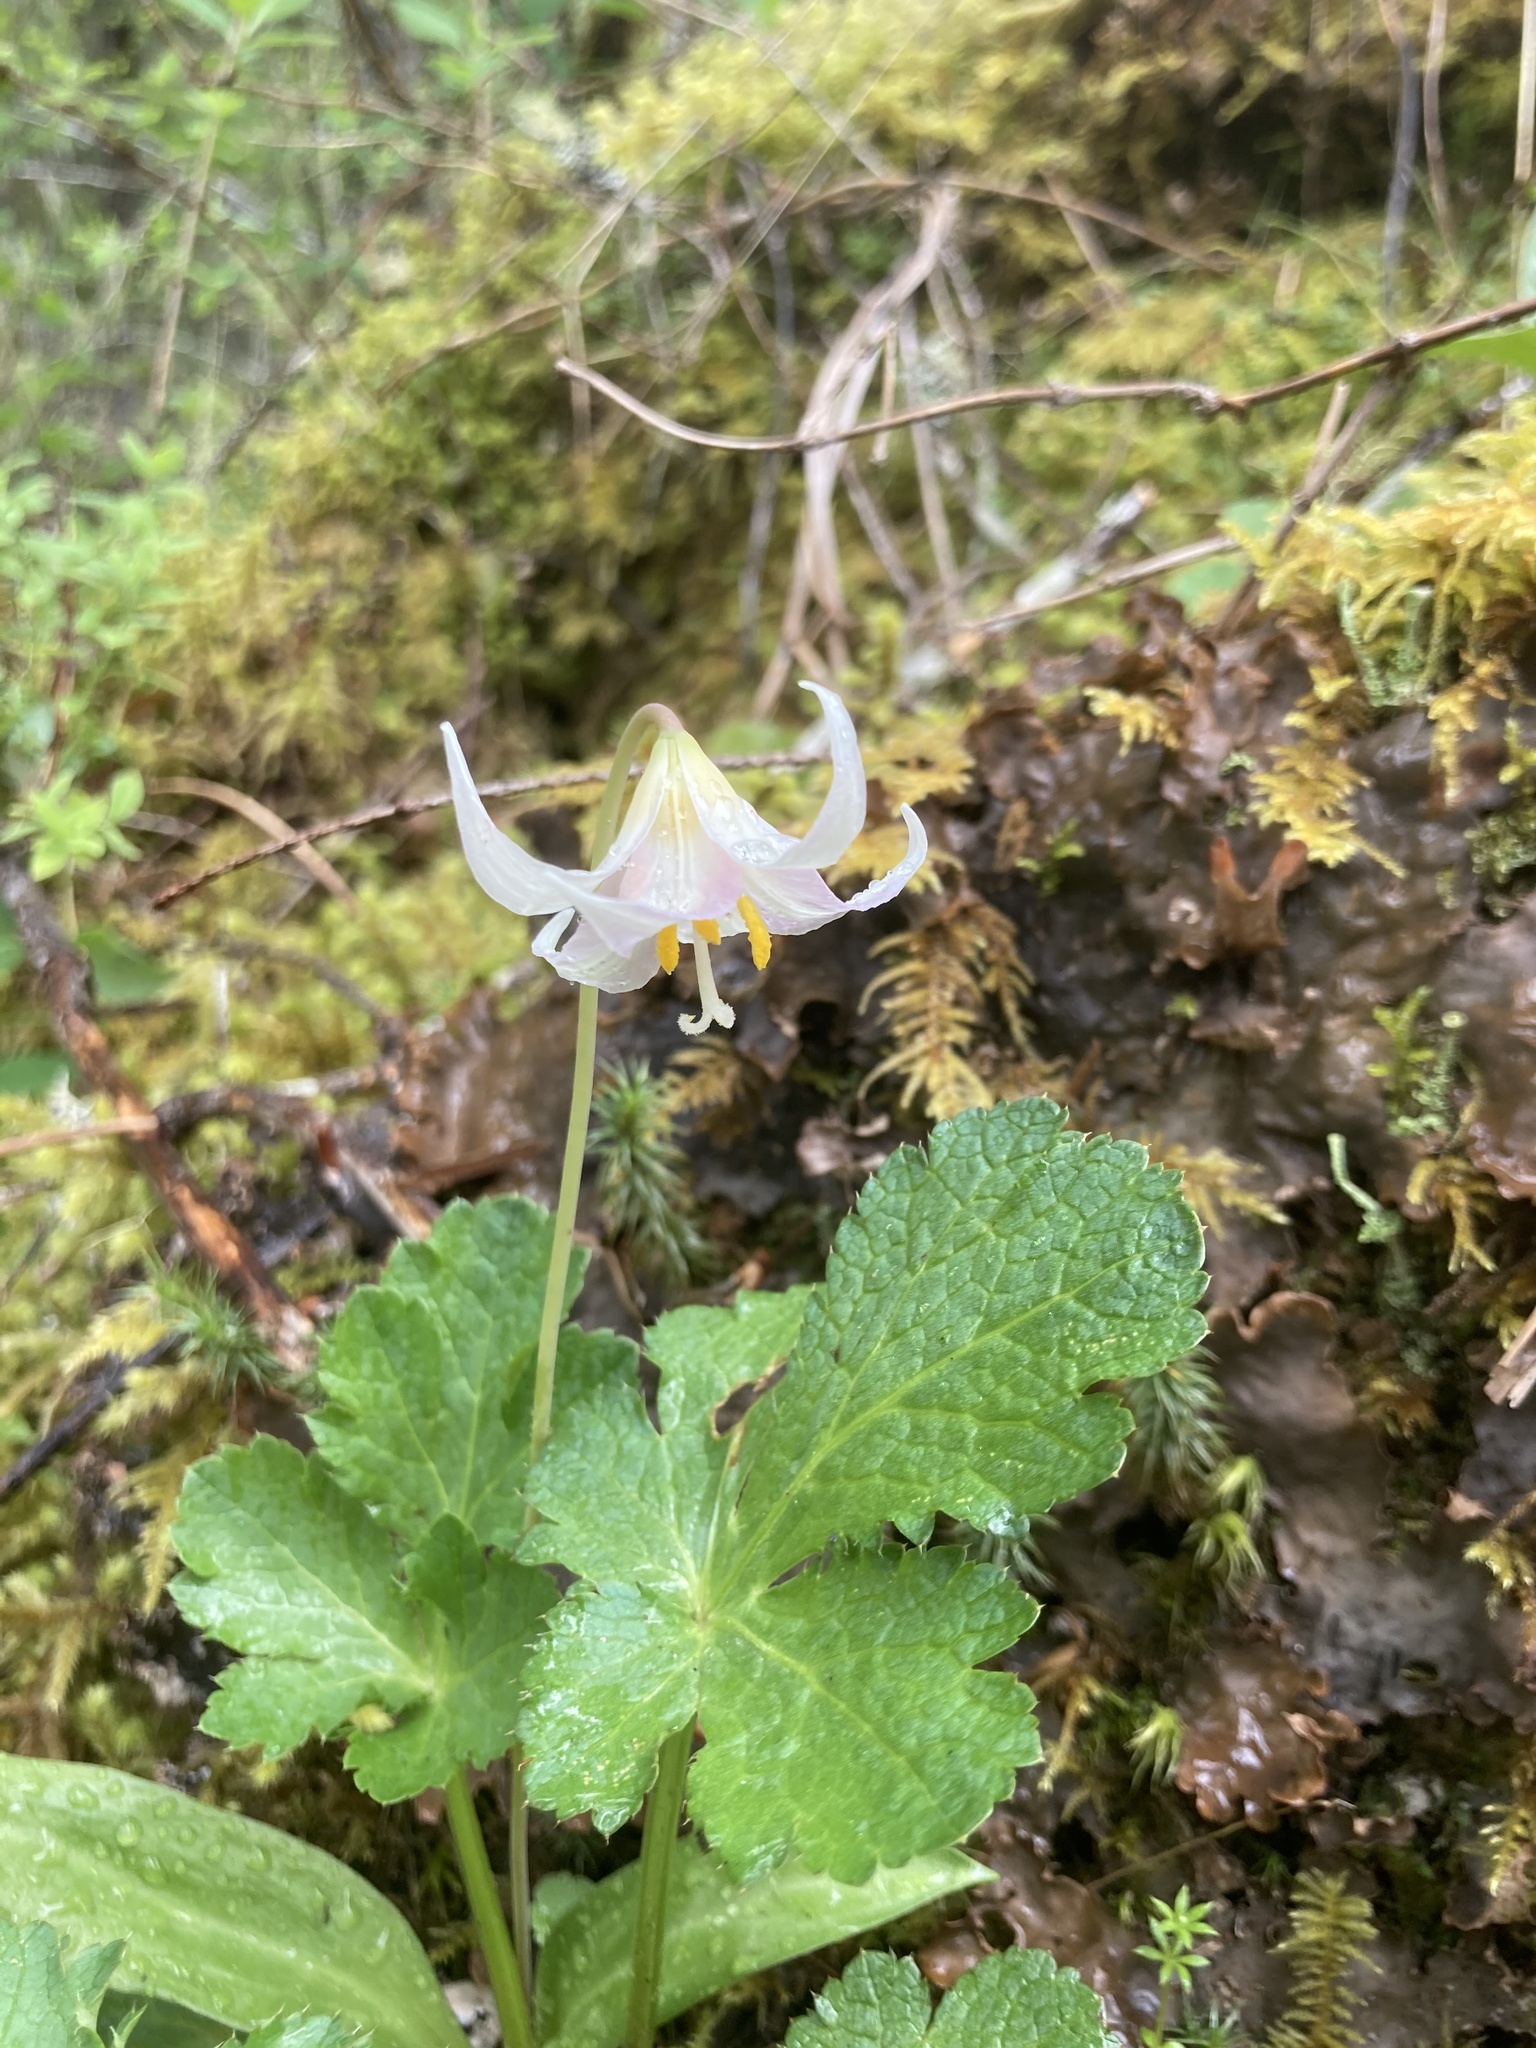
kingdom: Plantae
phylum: Tracheophyta
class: Liliopsida
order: Liliales
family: Liliaceae
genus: Erythronium
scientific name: Erythronium oregonum
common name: Giant adder's-tongue
